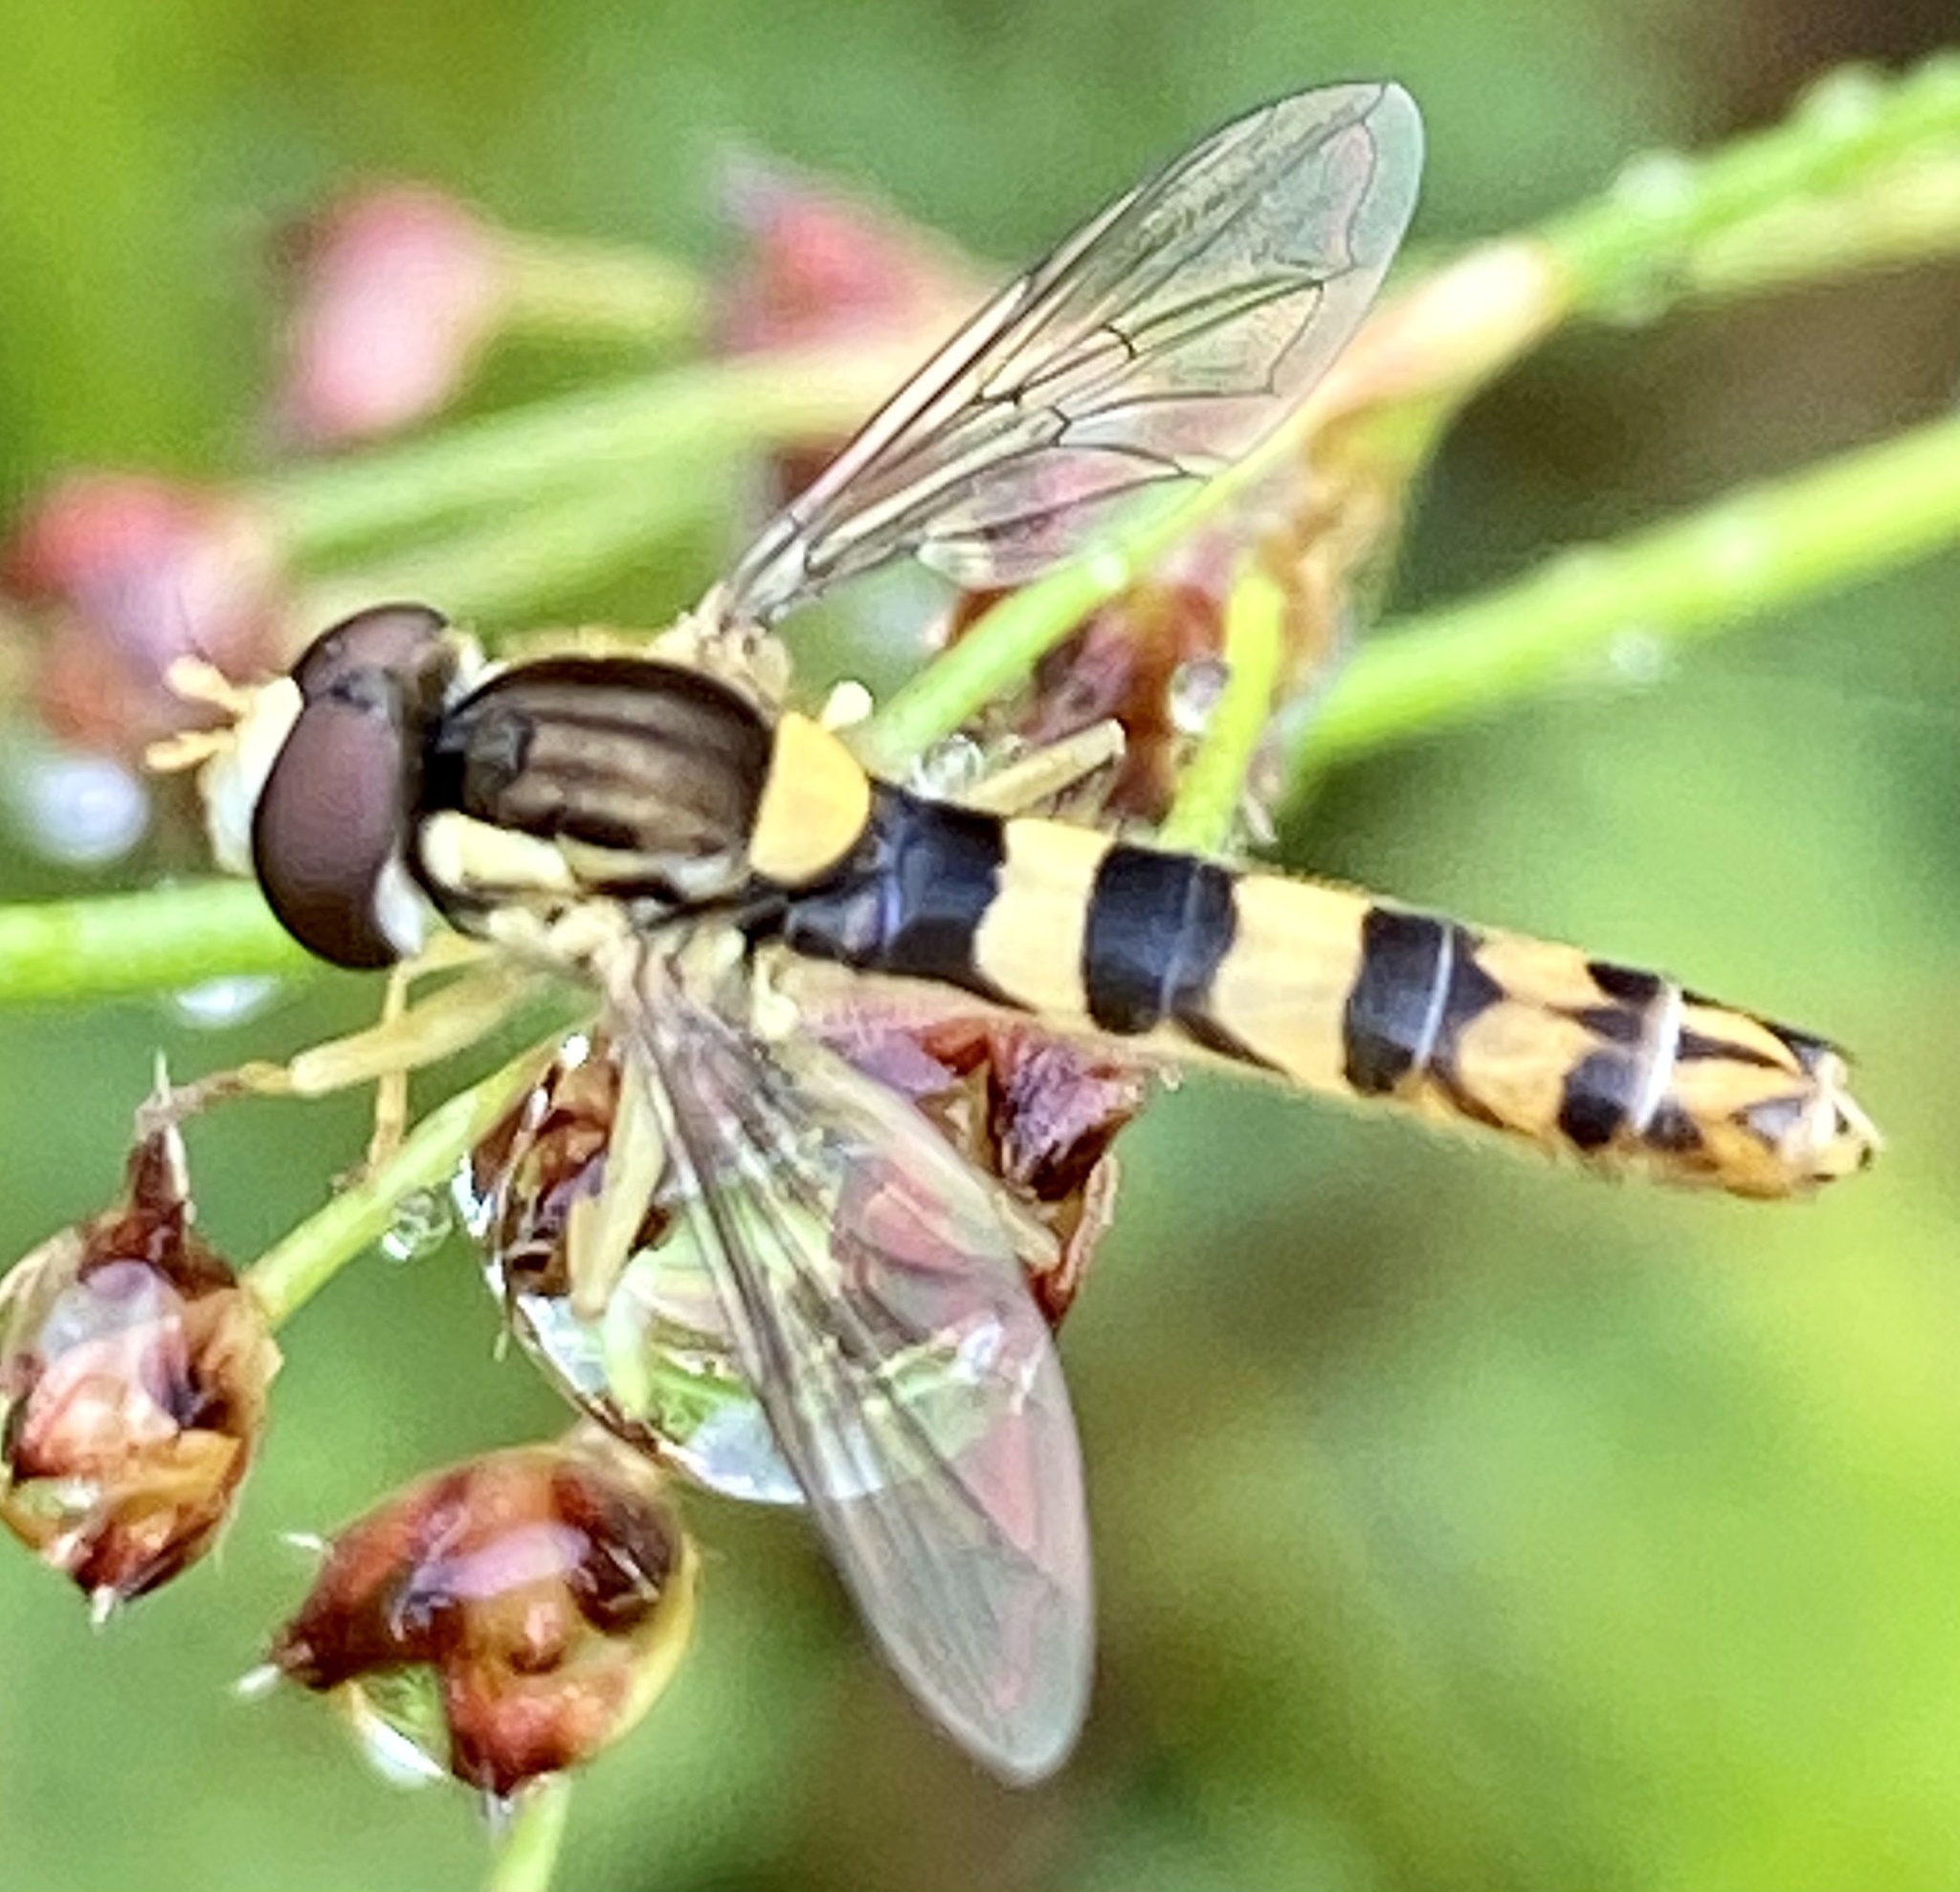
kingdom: Animalia
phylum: Arthropoda
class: Insecta
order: Diptera
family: Syrphidae
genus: Sphaerophoria
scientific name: Sphaerophoria scripta
